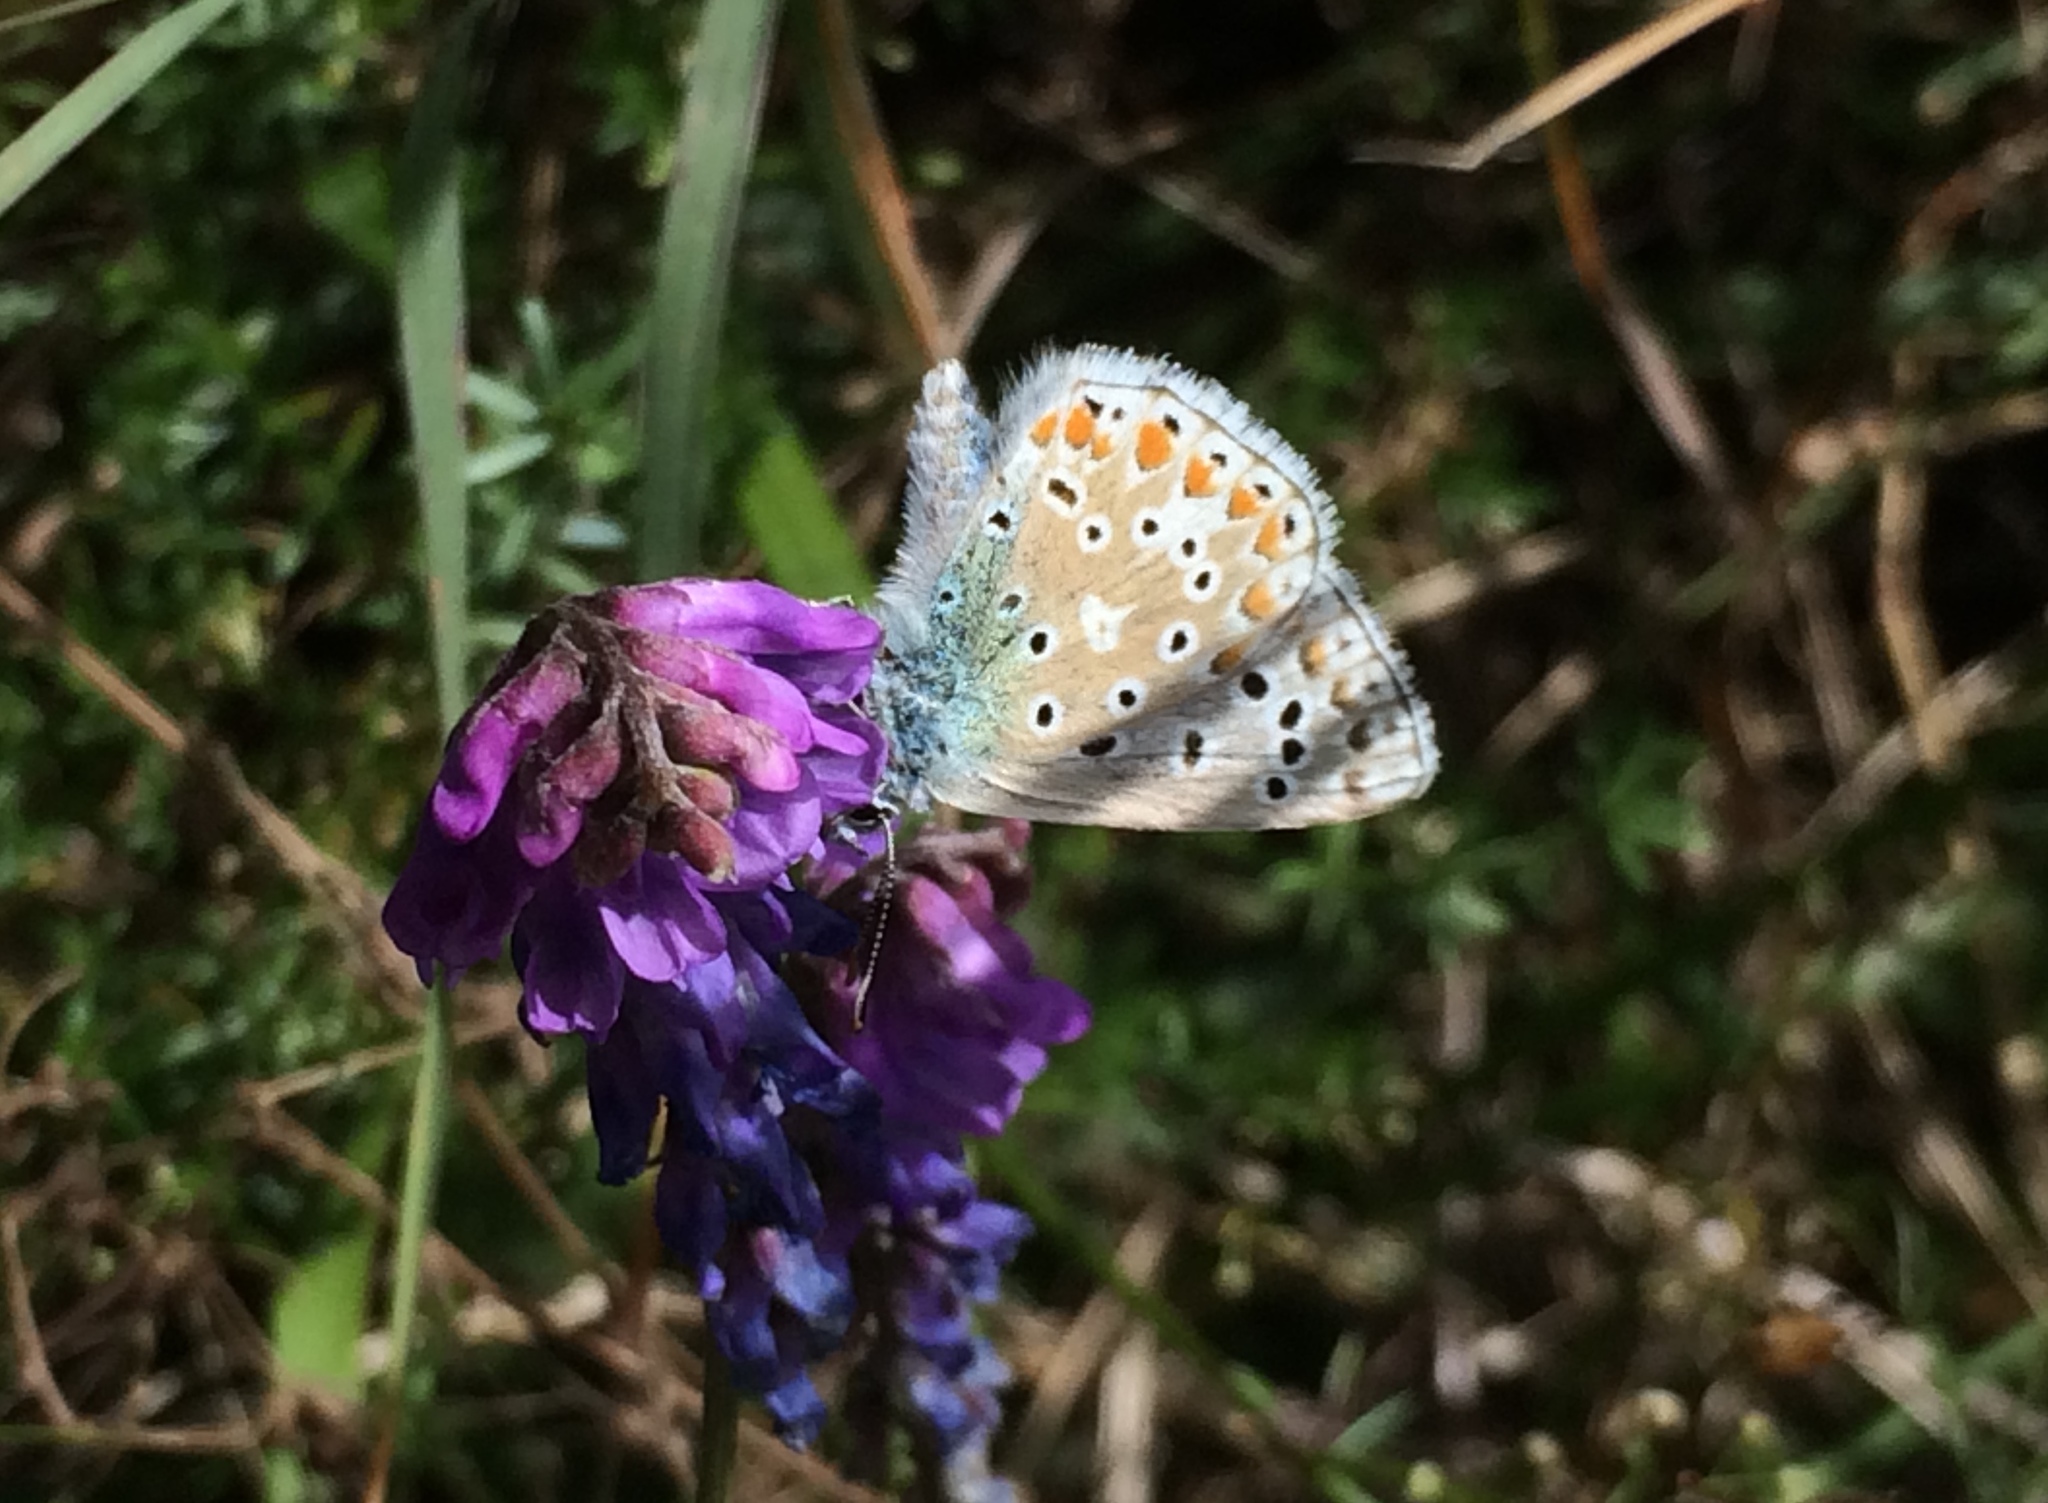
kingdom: Animalia
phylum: Arthropoda
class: Insecta
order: Lepidoptera
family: Lycaenidae
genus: Polyommatus
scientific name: Polyommatus icarus
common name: Common blue
